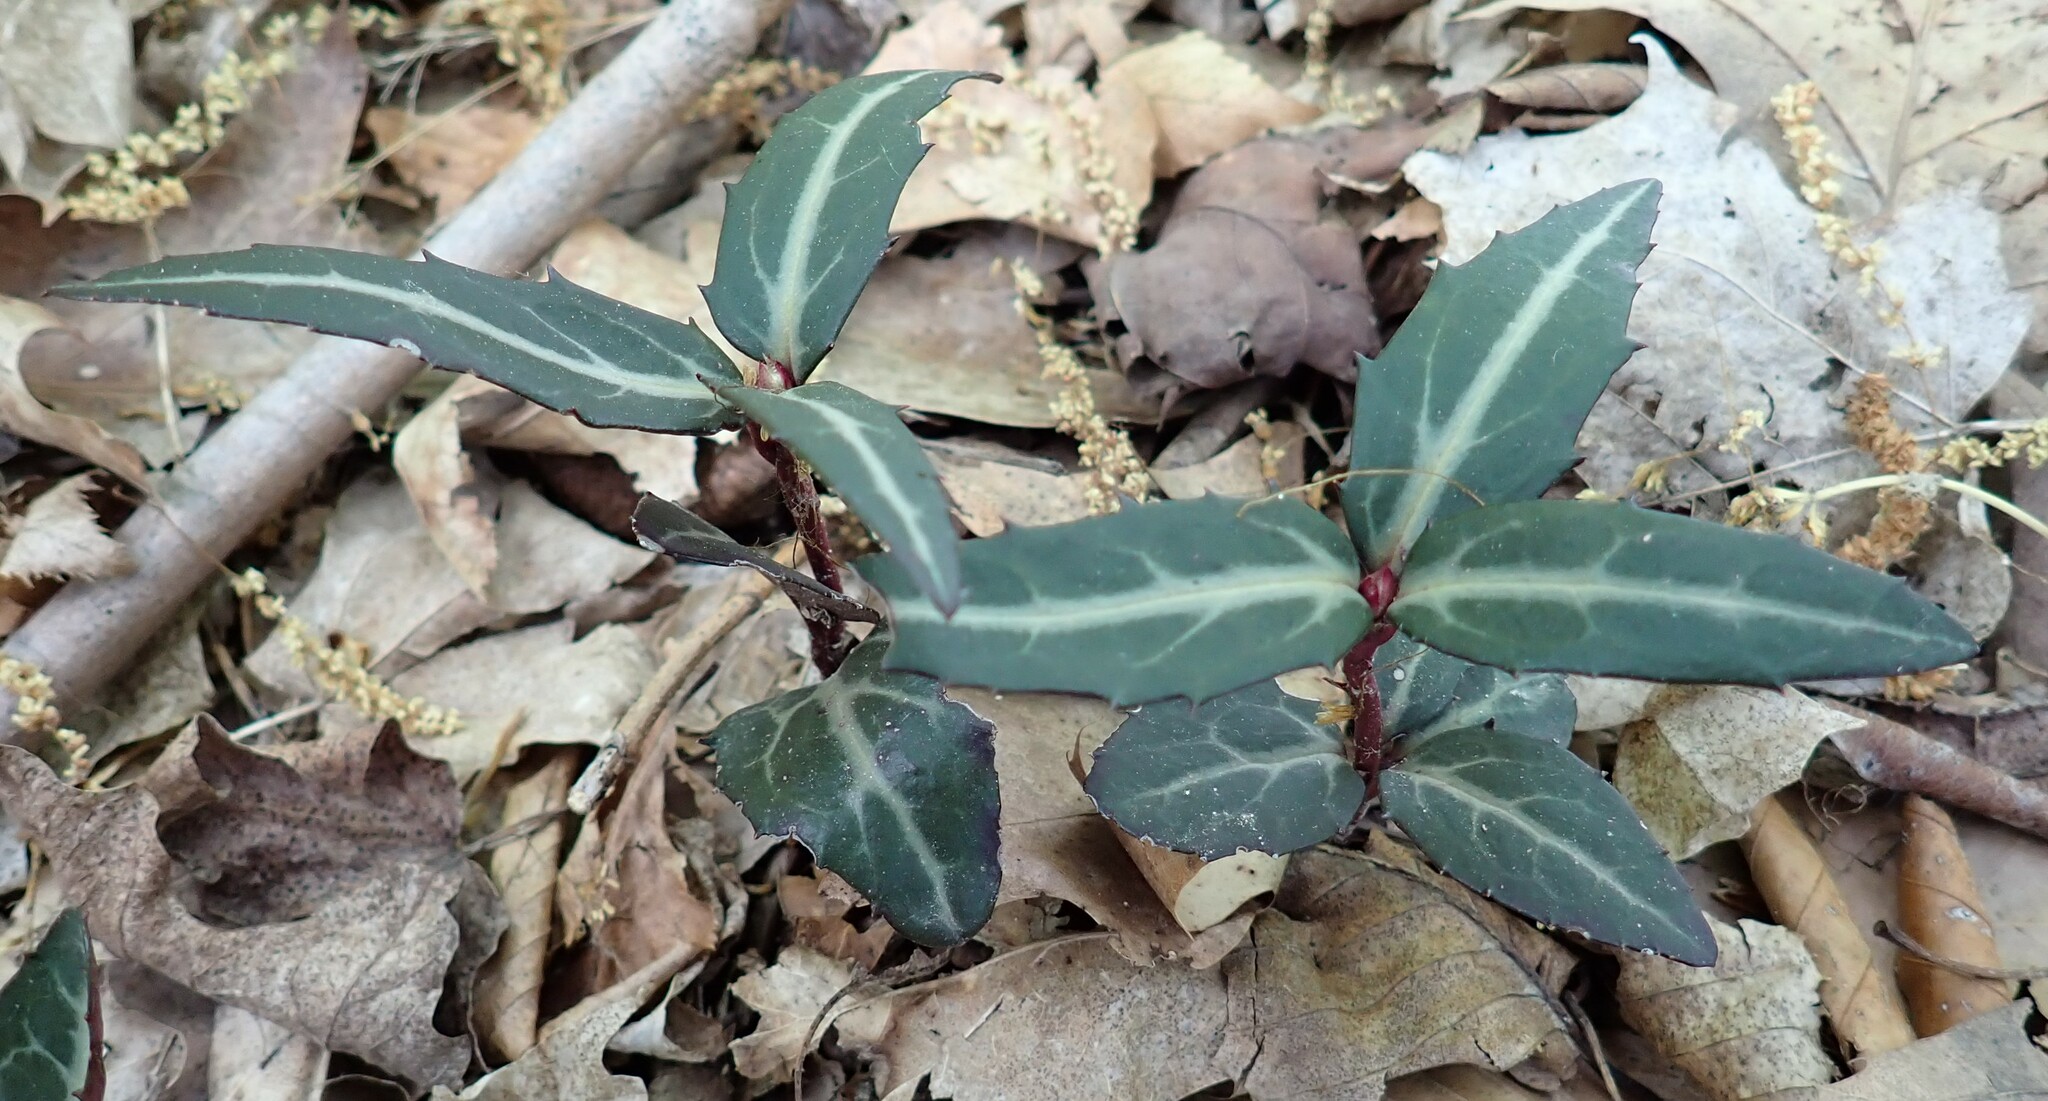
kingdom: Plantae
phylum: Tracheophyta
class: Magnoliopsida
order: Ericales
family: Ericaceae
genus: Chimaphila
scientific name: Chimaphila maculata
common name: Spotted pipsissewa
